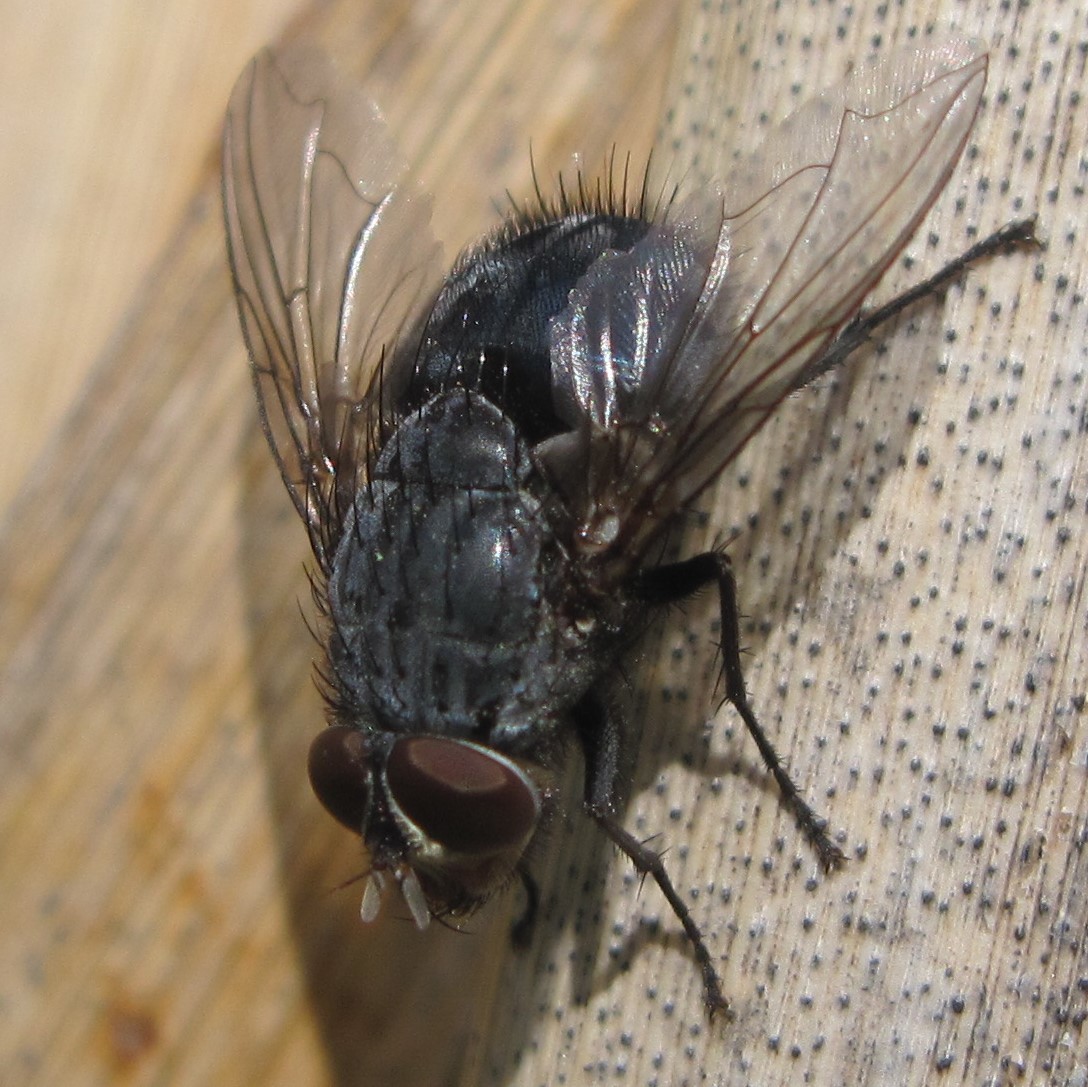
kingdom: Animalia
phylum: Arthropoda
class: Insecta
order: Diptera
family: Calliphoridae
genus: Calliphora
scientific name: Calliphora vicina
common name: Common blow flie
